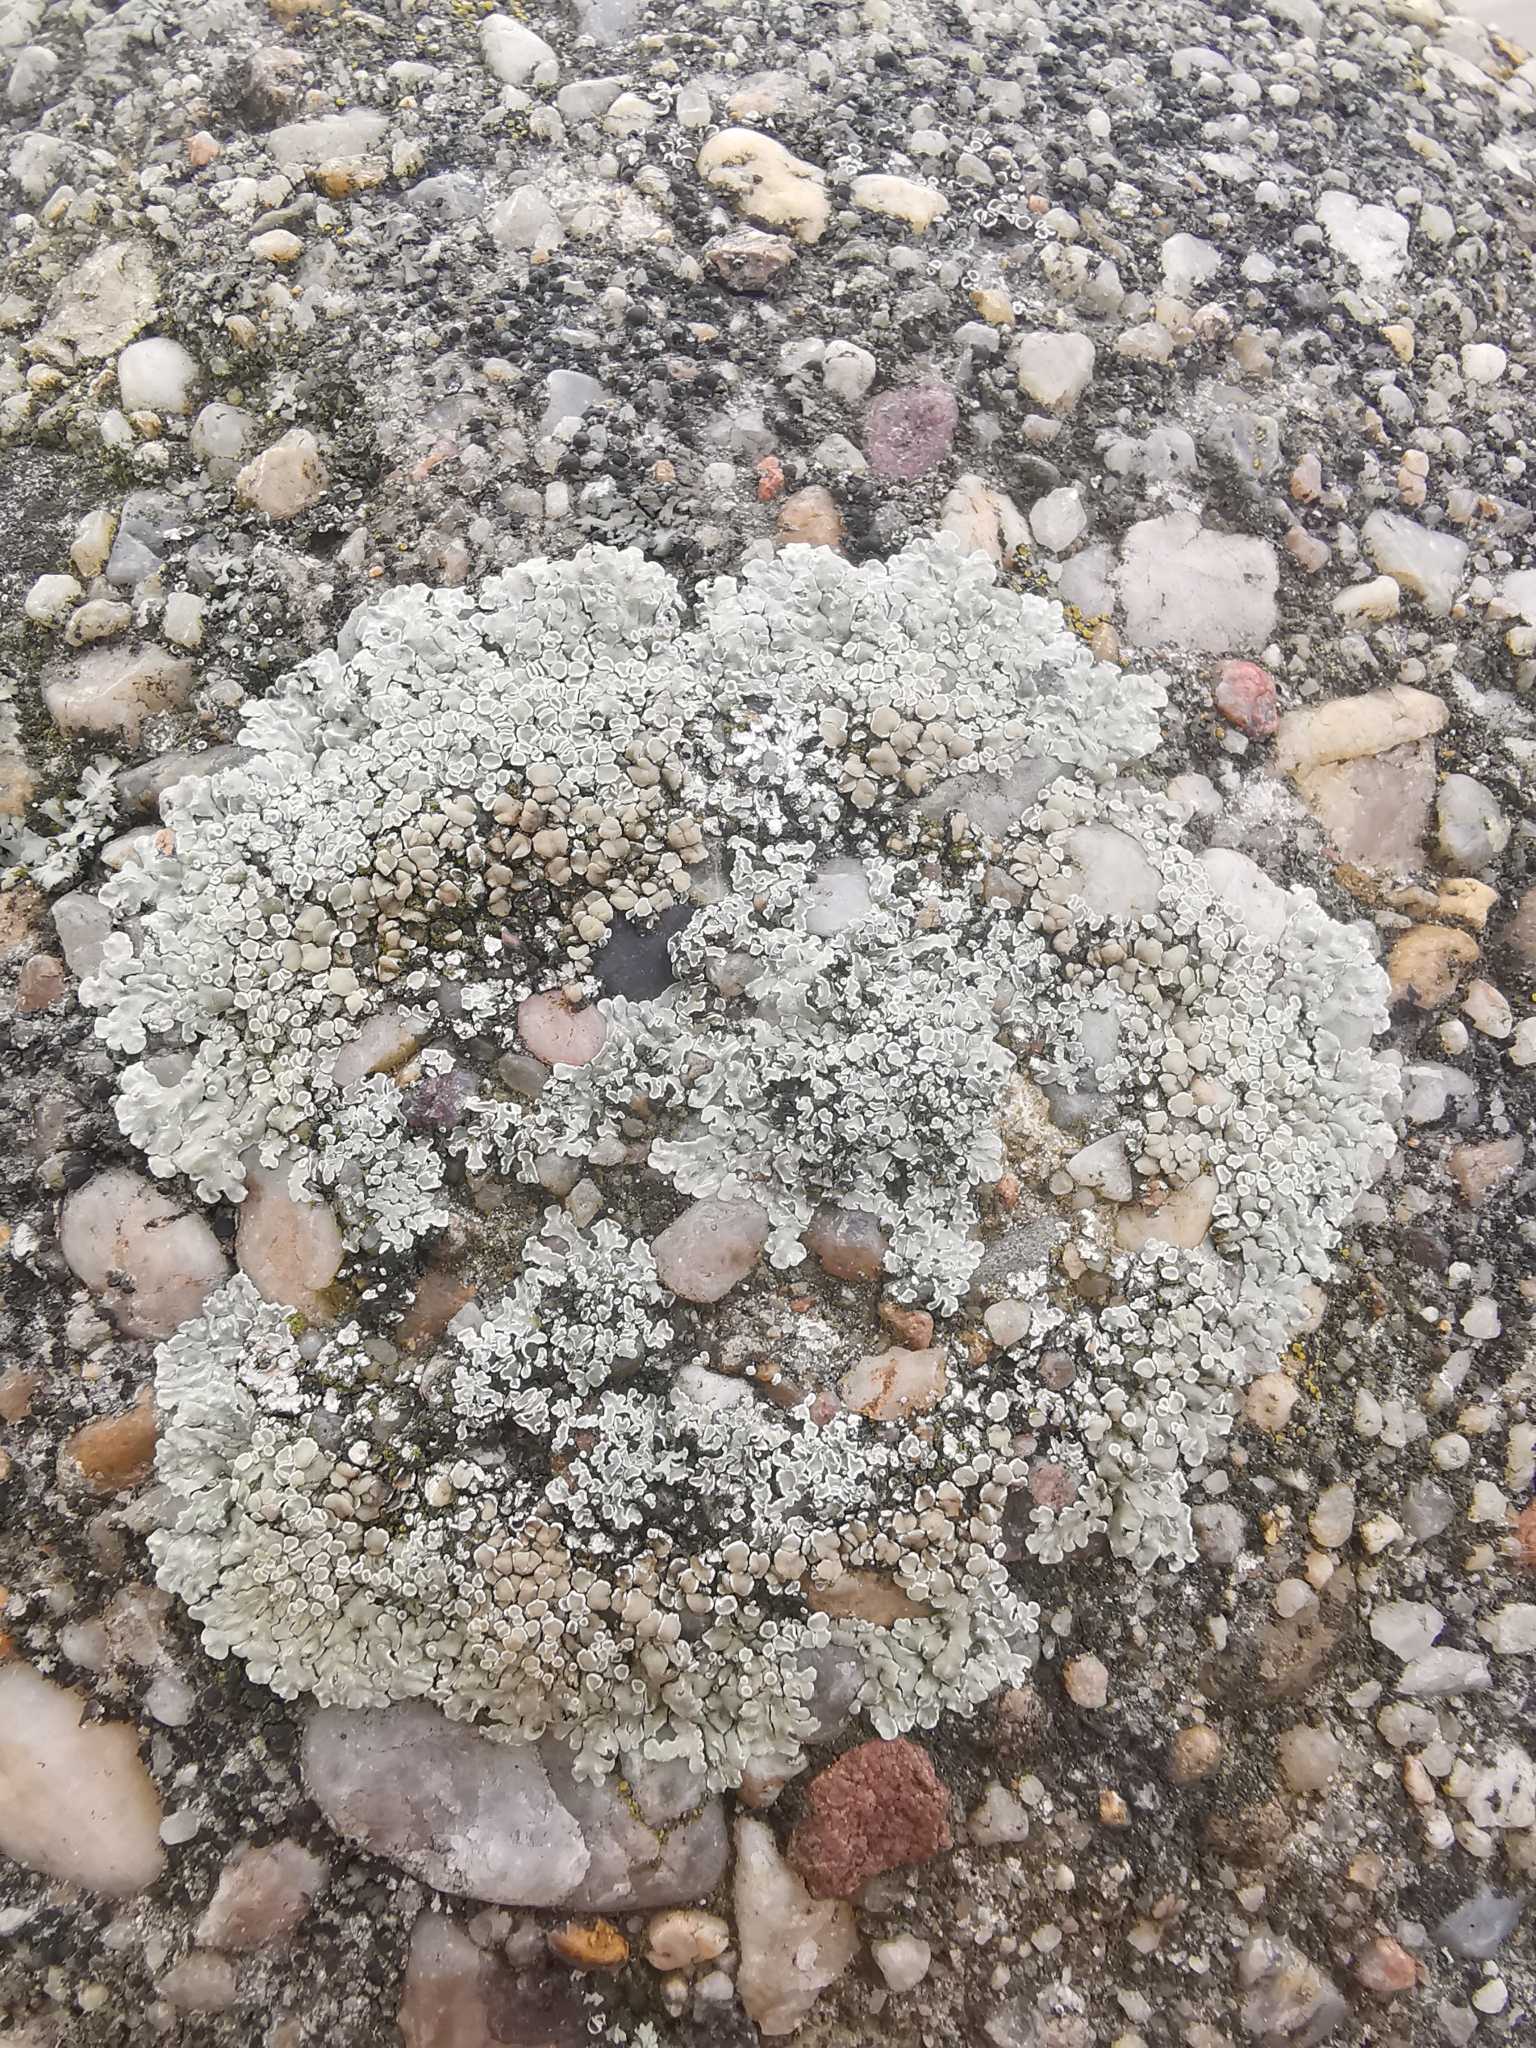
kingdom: Fungi
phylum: Ascomycota
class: Lecanoromycetes
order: Lecanorales
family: Lecanoraceae
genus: Protoparmeliopsis
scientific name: Protoparmeliopsis muralis
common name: Stonewall rim lichen
